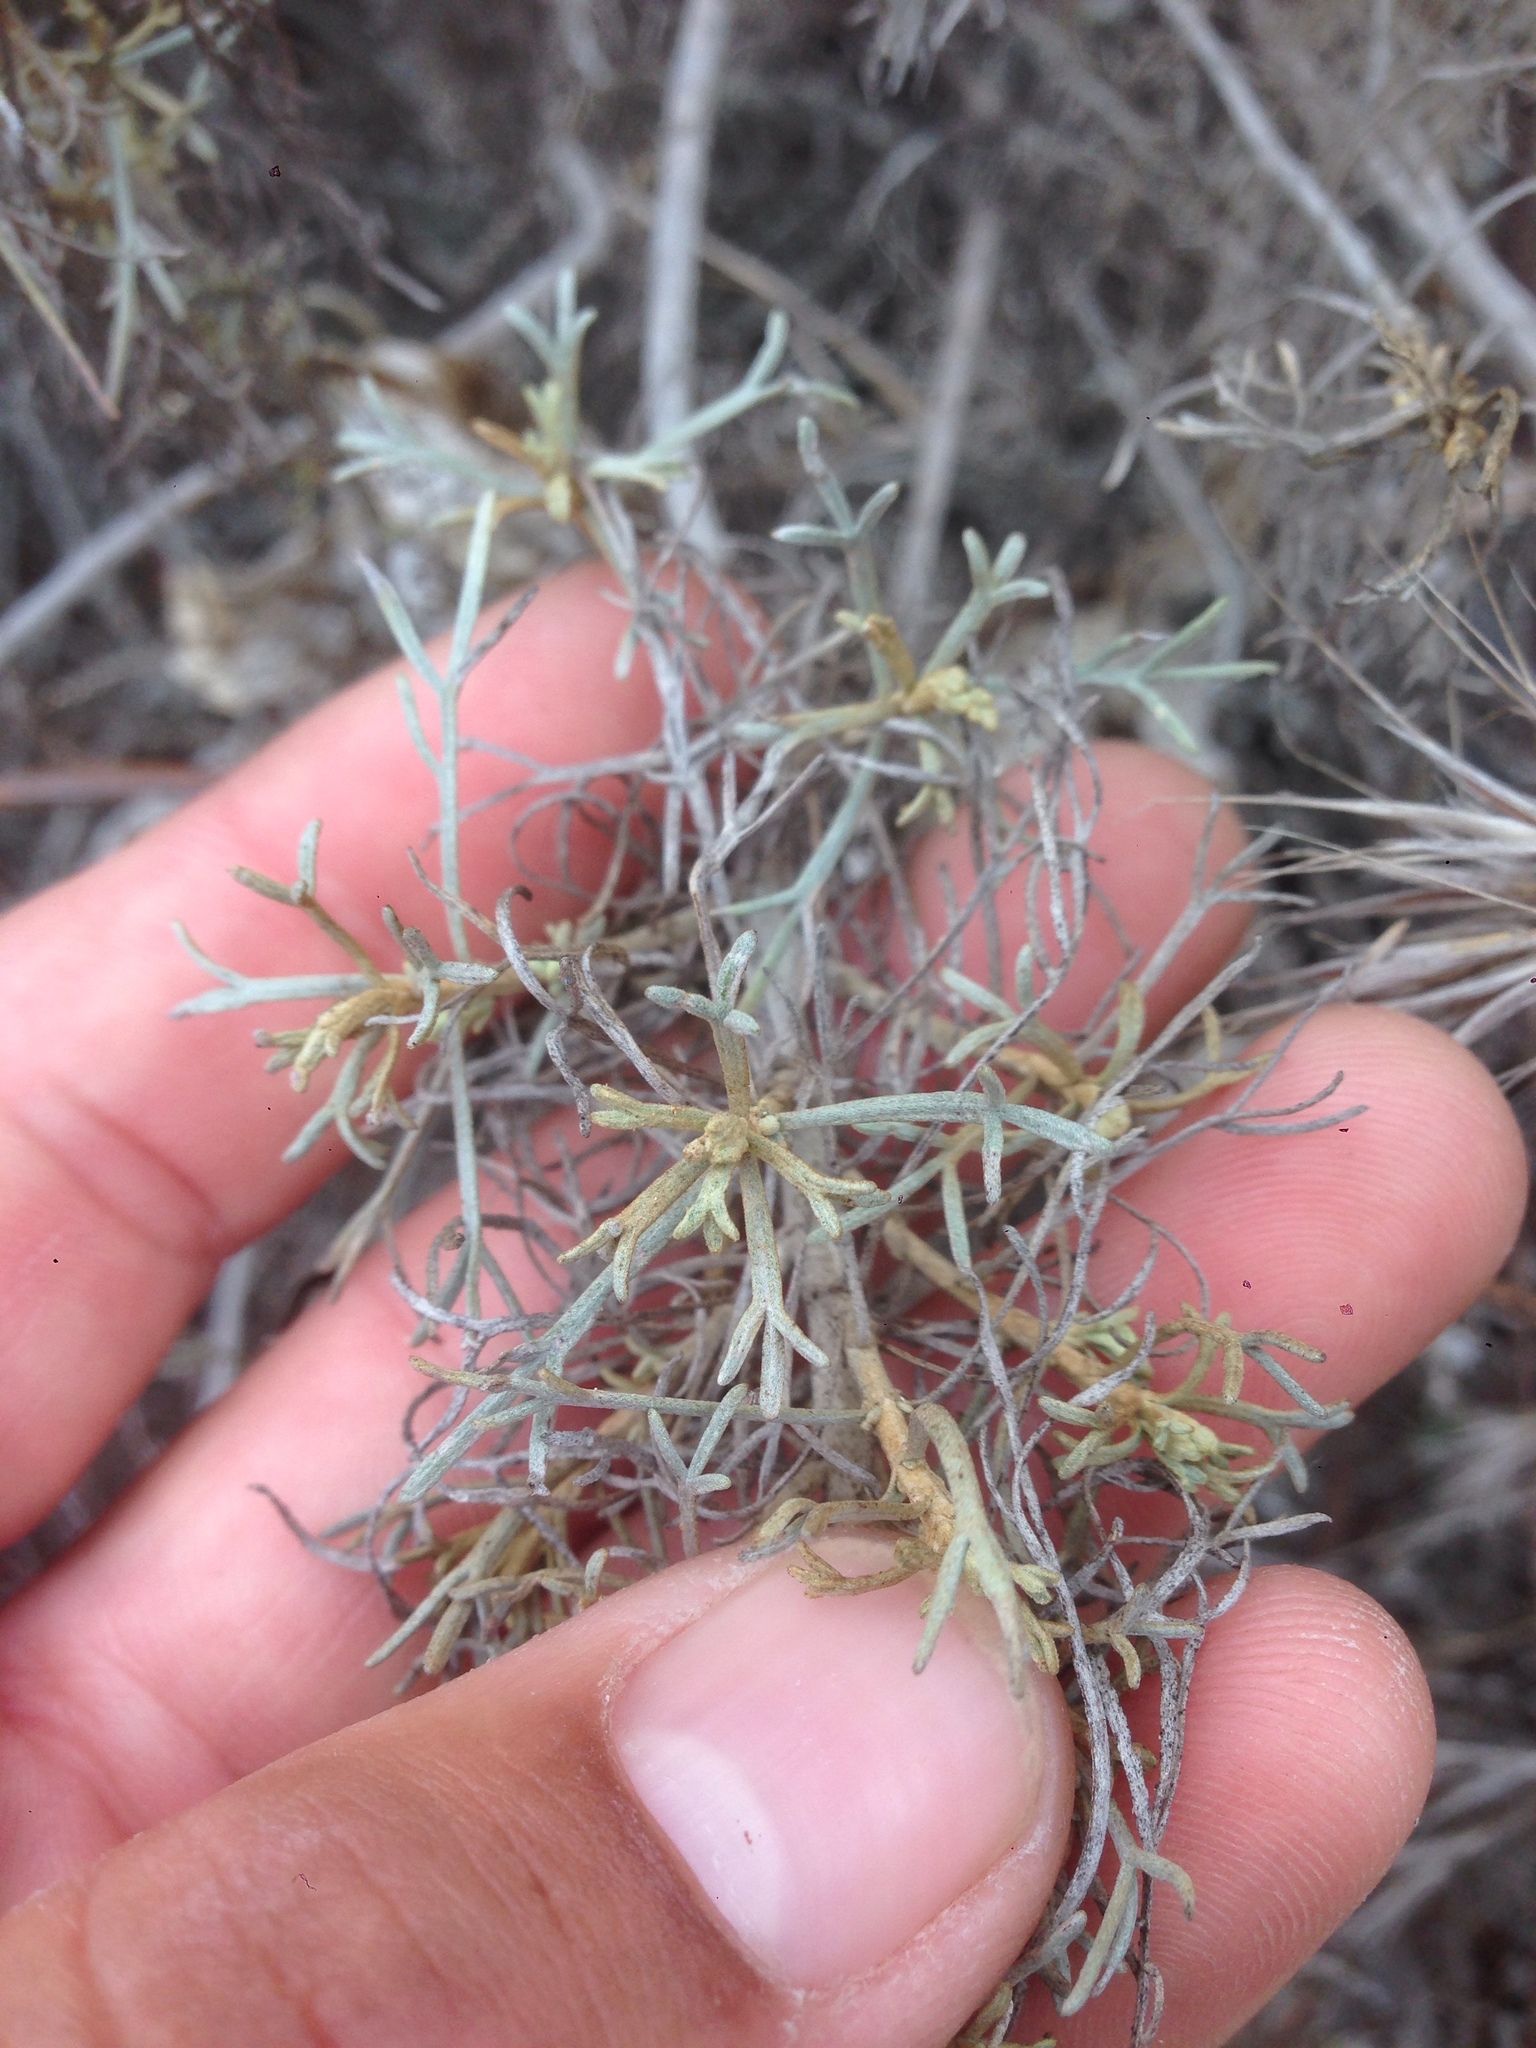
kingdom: Plantae
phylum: Tracheophyta
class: Magnoliopsida
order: Asterales
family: Asteraceae
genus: Artemisia
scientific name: Artemisia nesiotica
